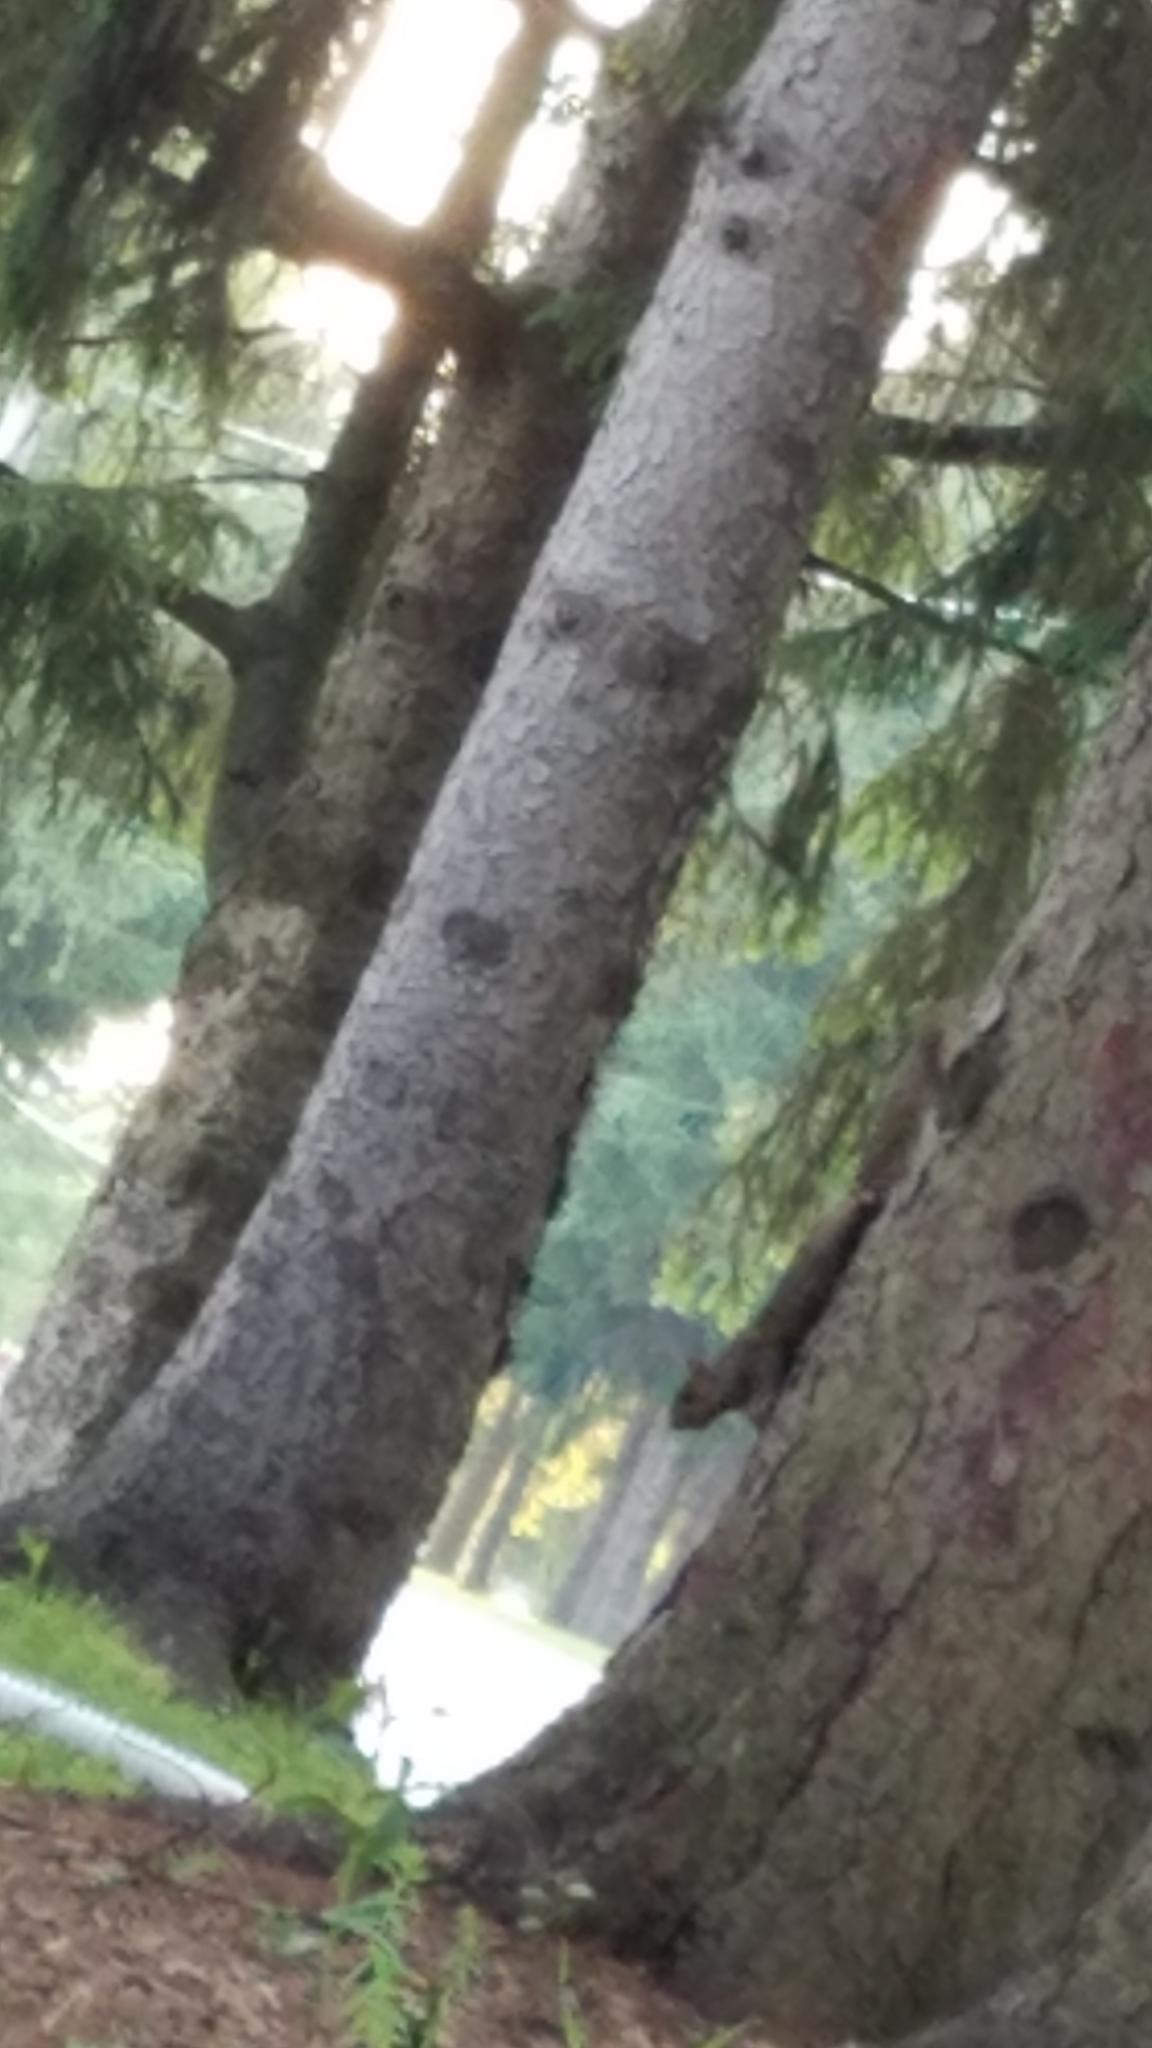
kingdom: Animalia
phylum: Chordata
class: Mammalia
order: Rodentia
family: Sciuridae
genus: Sciurus
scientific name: Sciurus carolinensis
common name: Eastern gray squirrel
